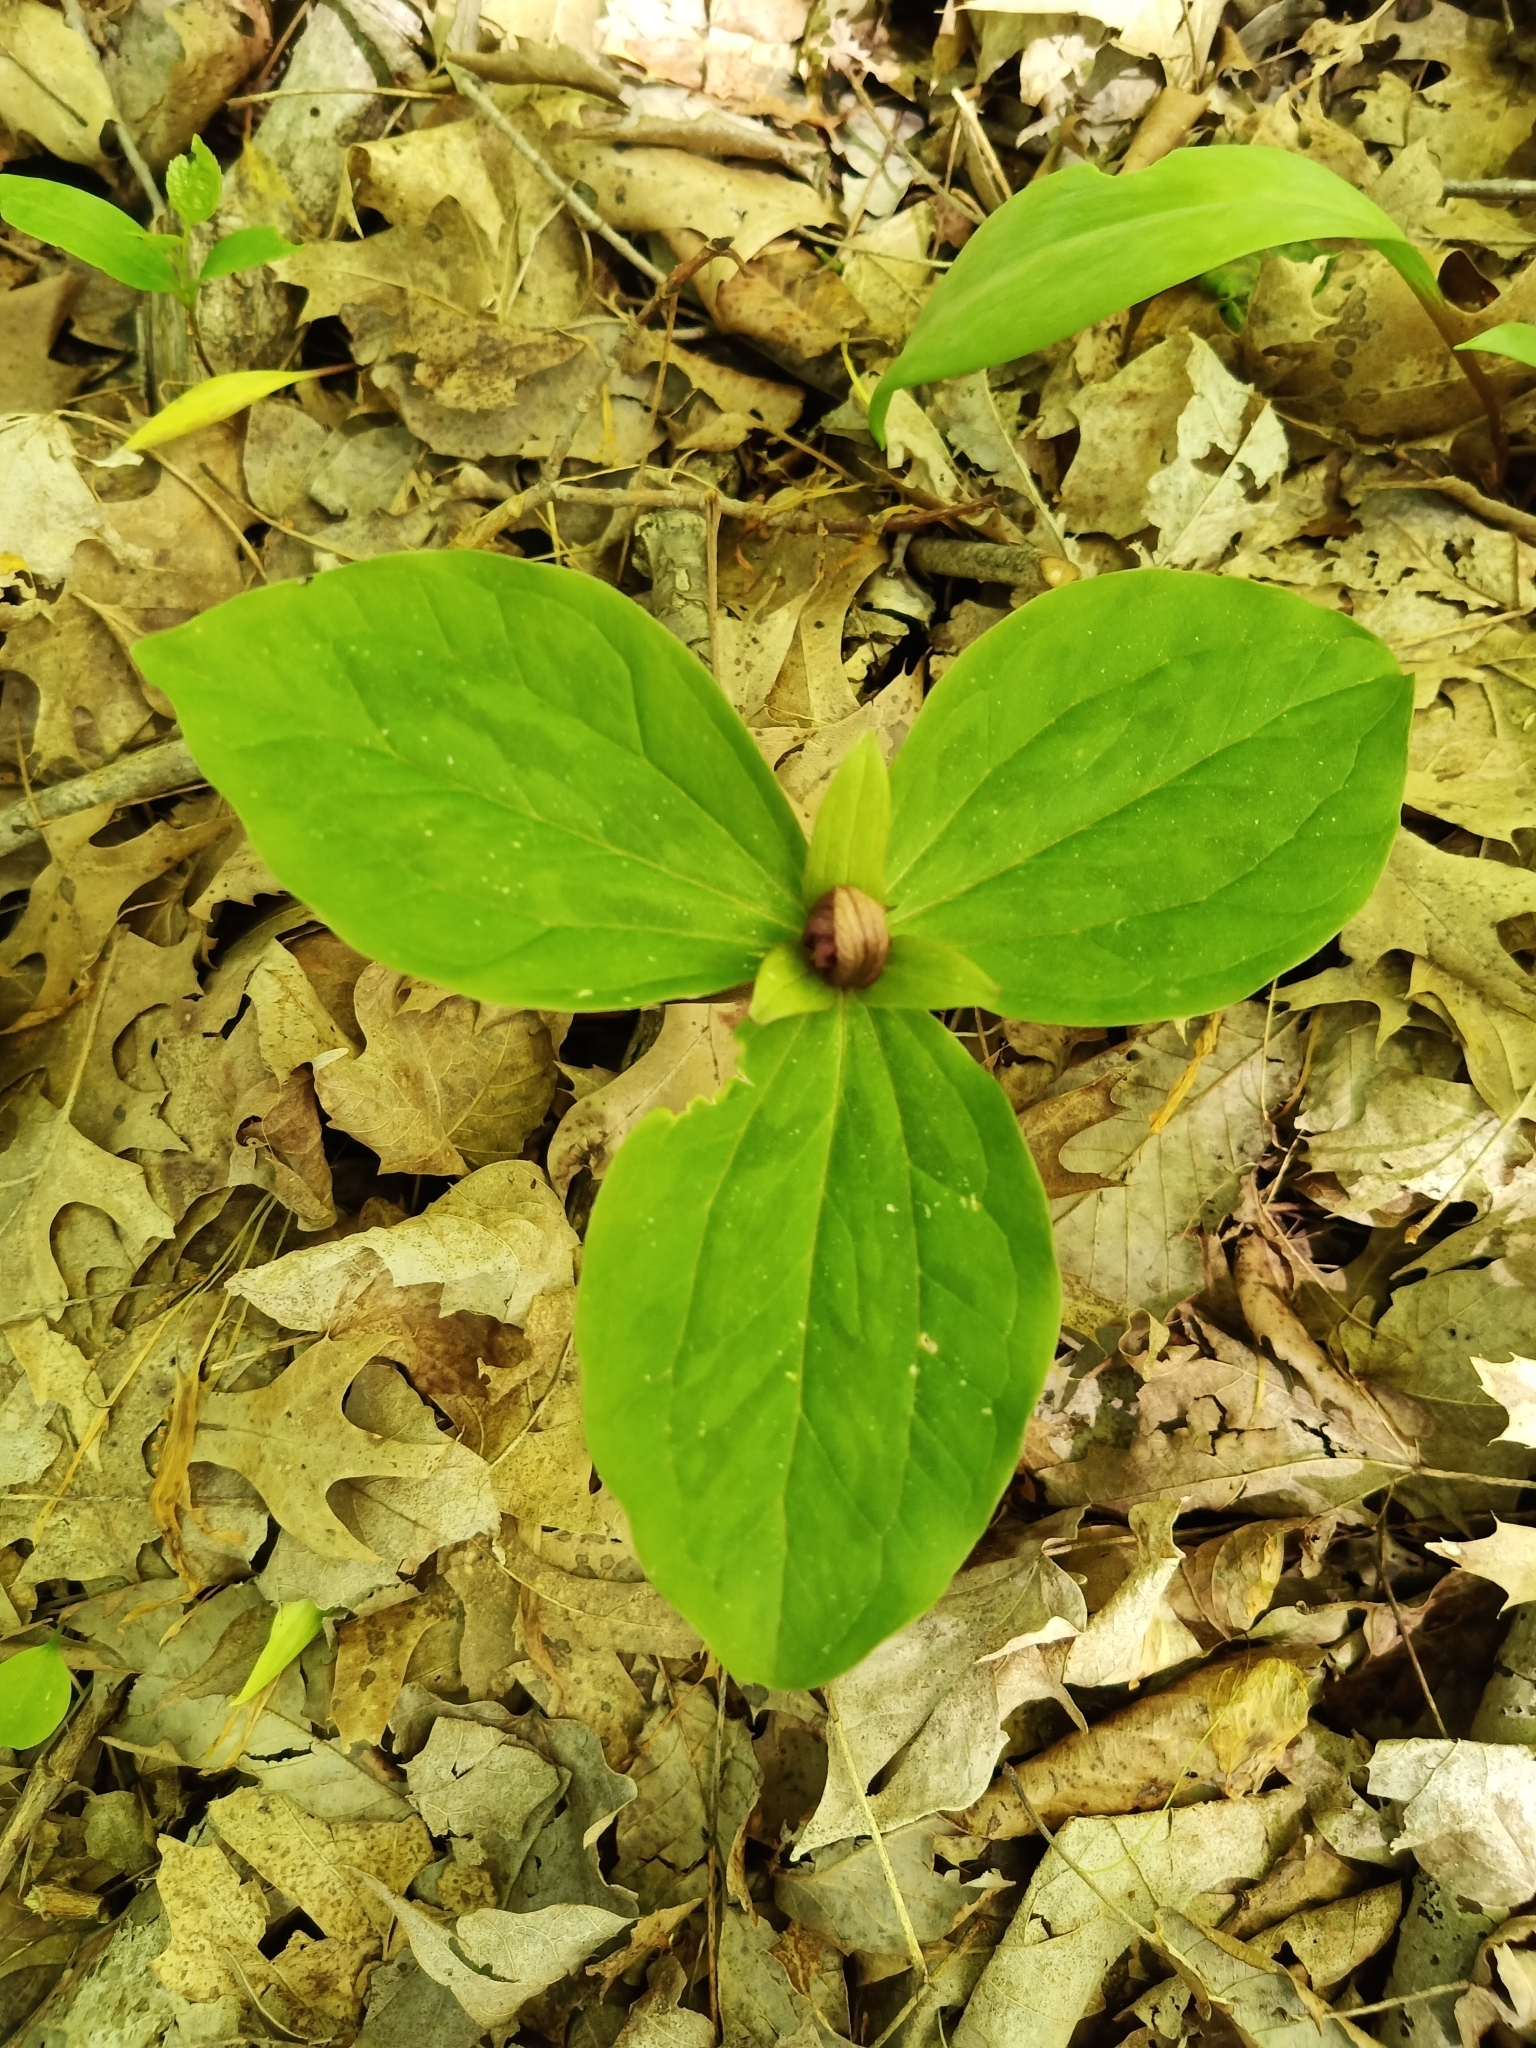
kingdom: Plantae
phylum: Tracheophyta
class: Liliopsida
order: Liliales
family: Melanthiaceae
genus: Trillium
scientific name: Trillium sessile
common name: Sessile trillium
